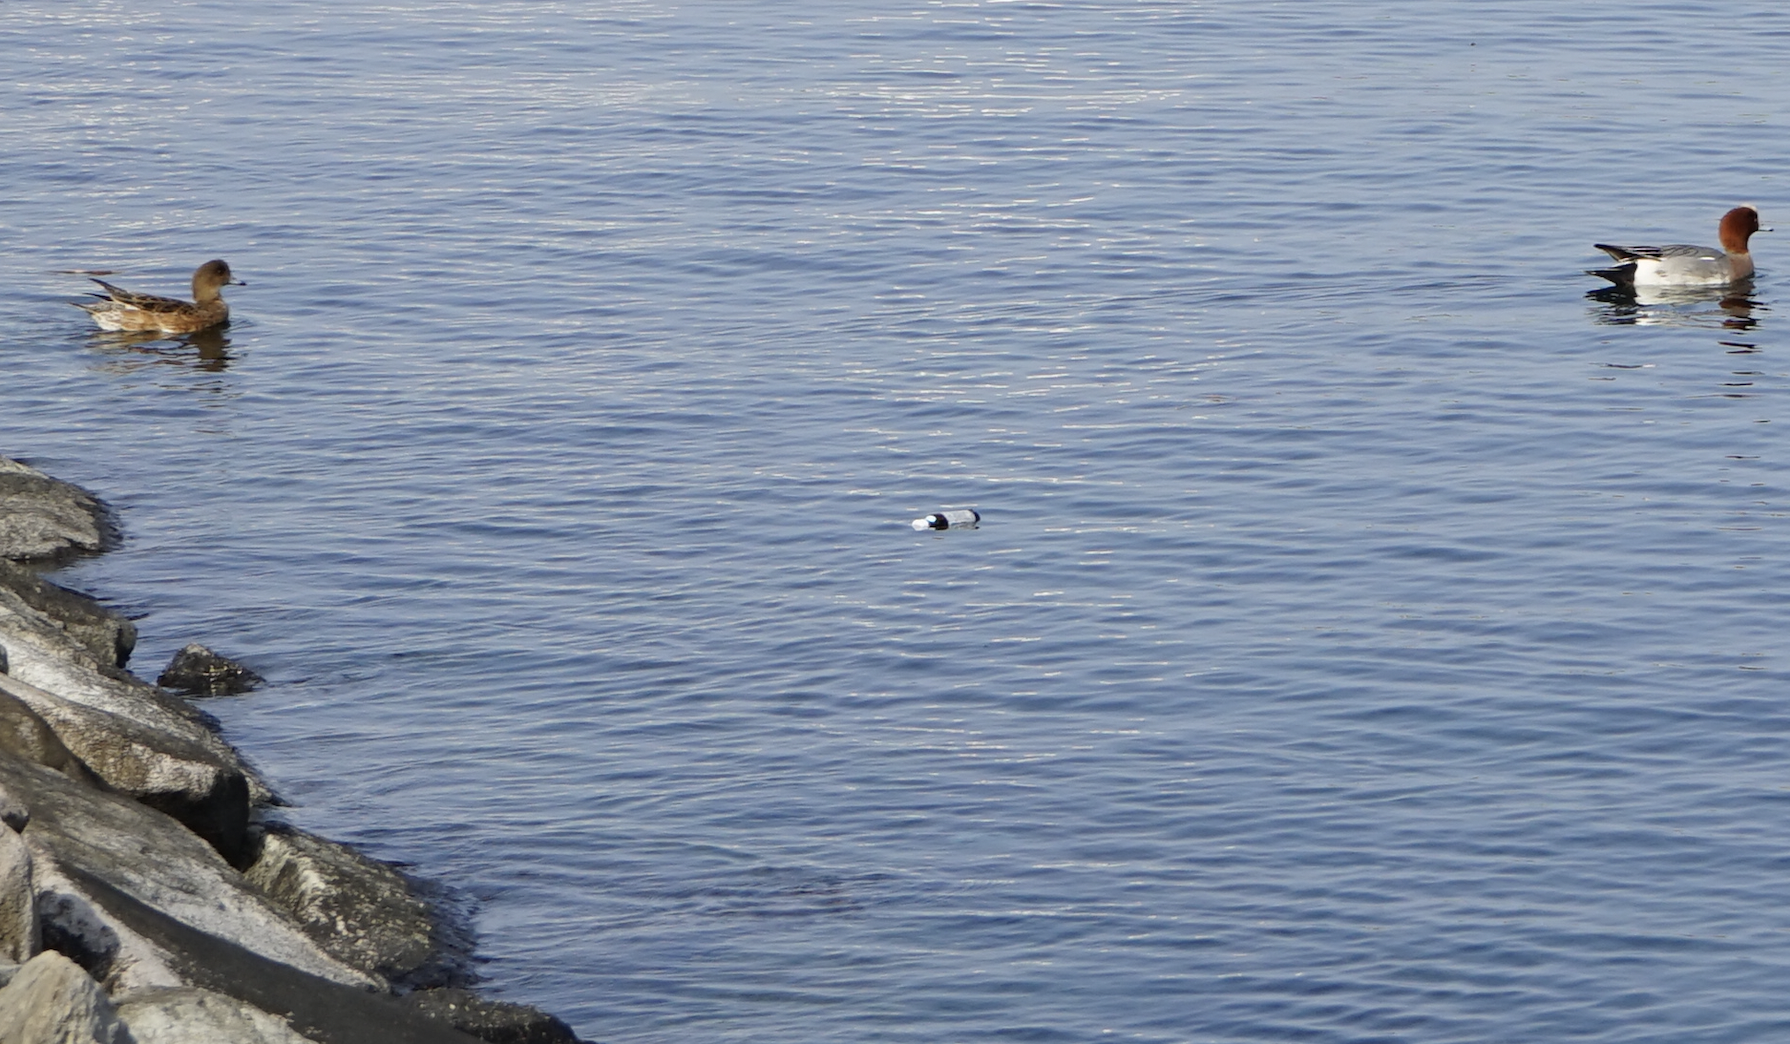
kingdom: Animalia
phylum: Chordata
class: Aves
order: Anseriformes
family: Anatidae
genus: Mareca
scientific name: Mareca penelope
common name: Eurasian wigeon
